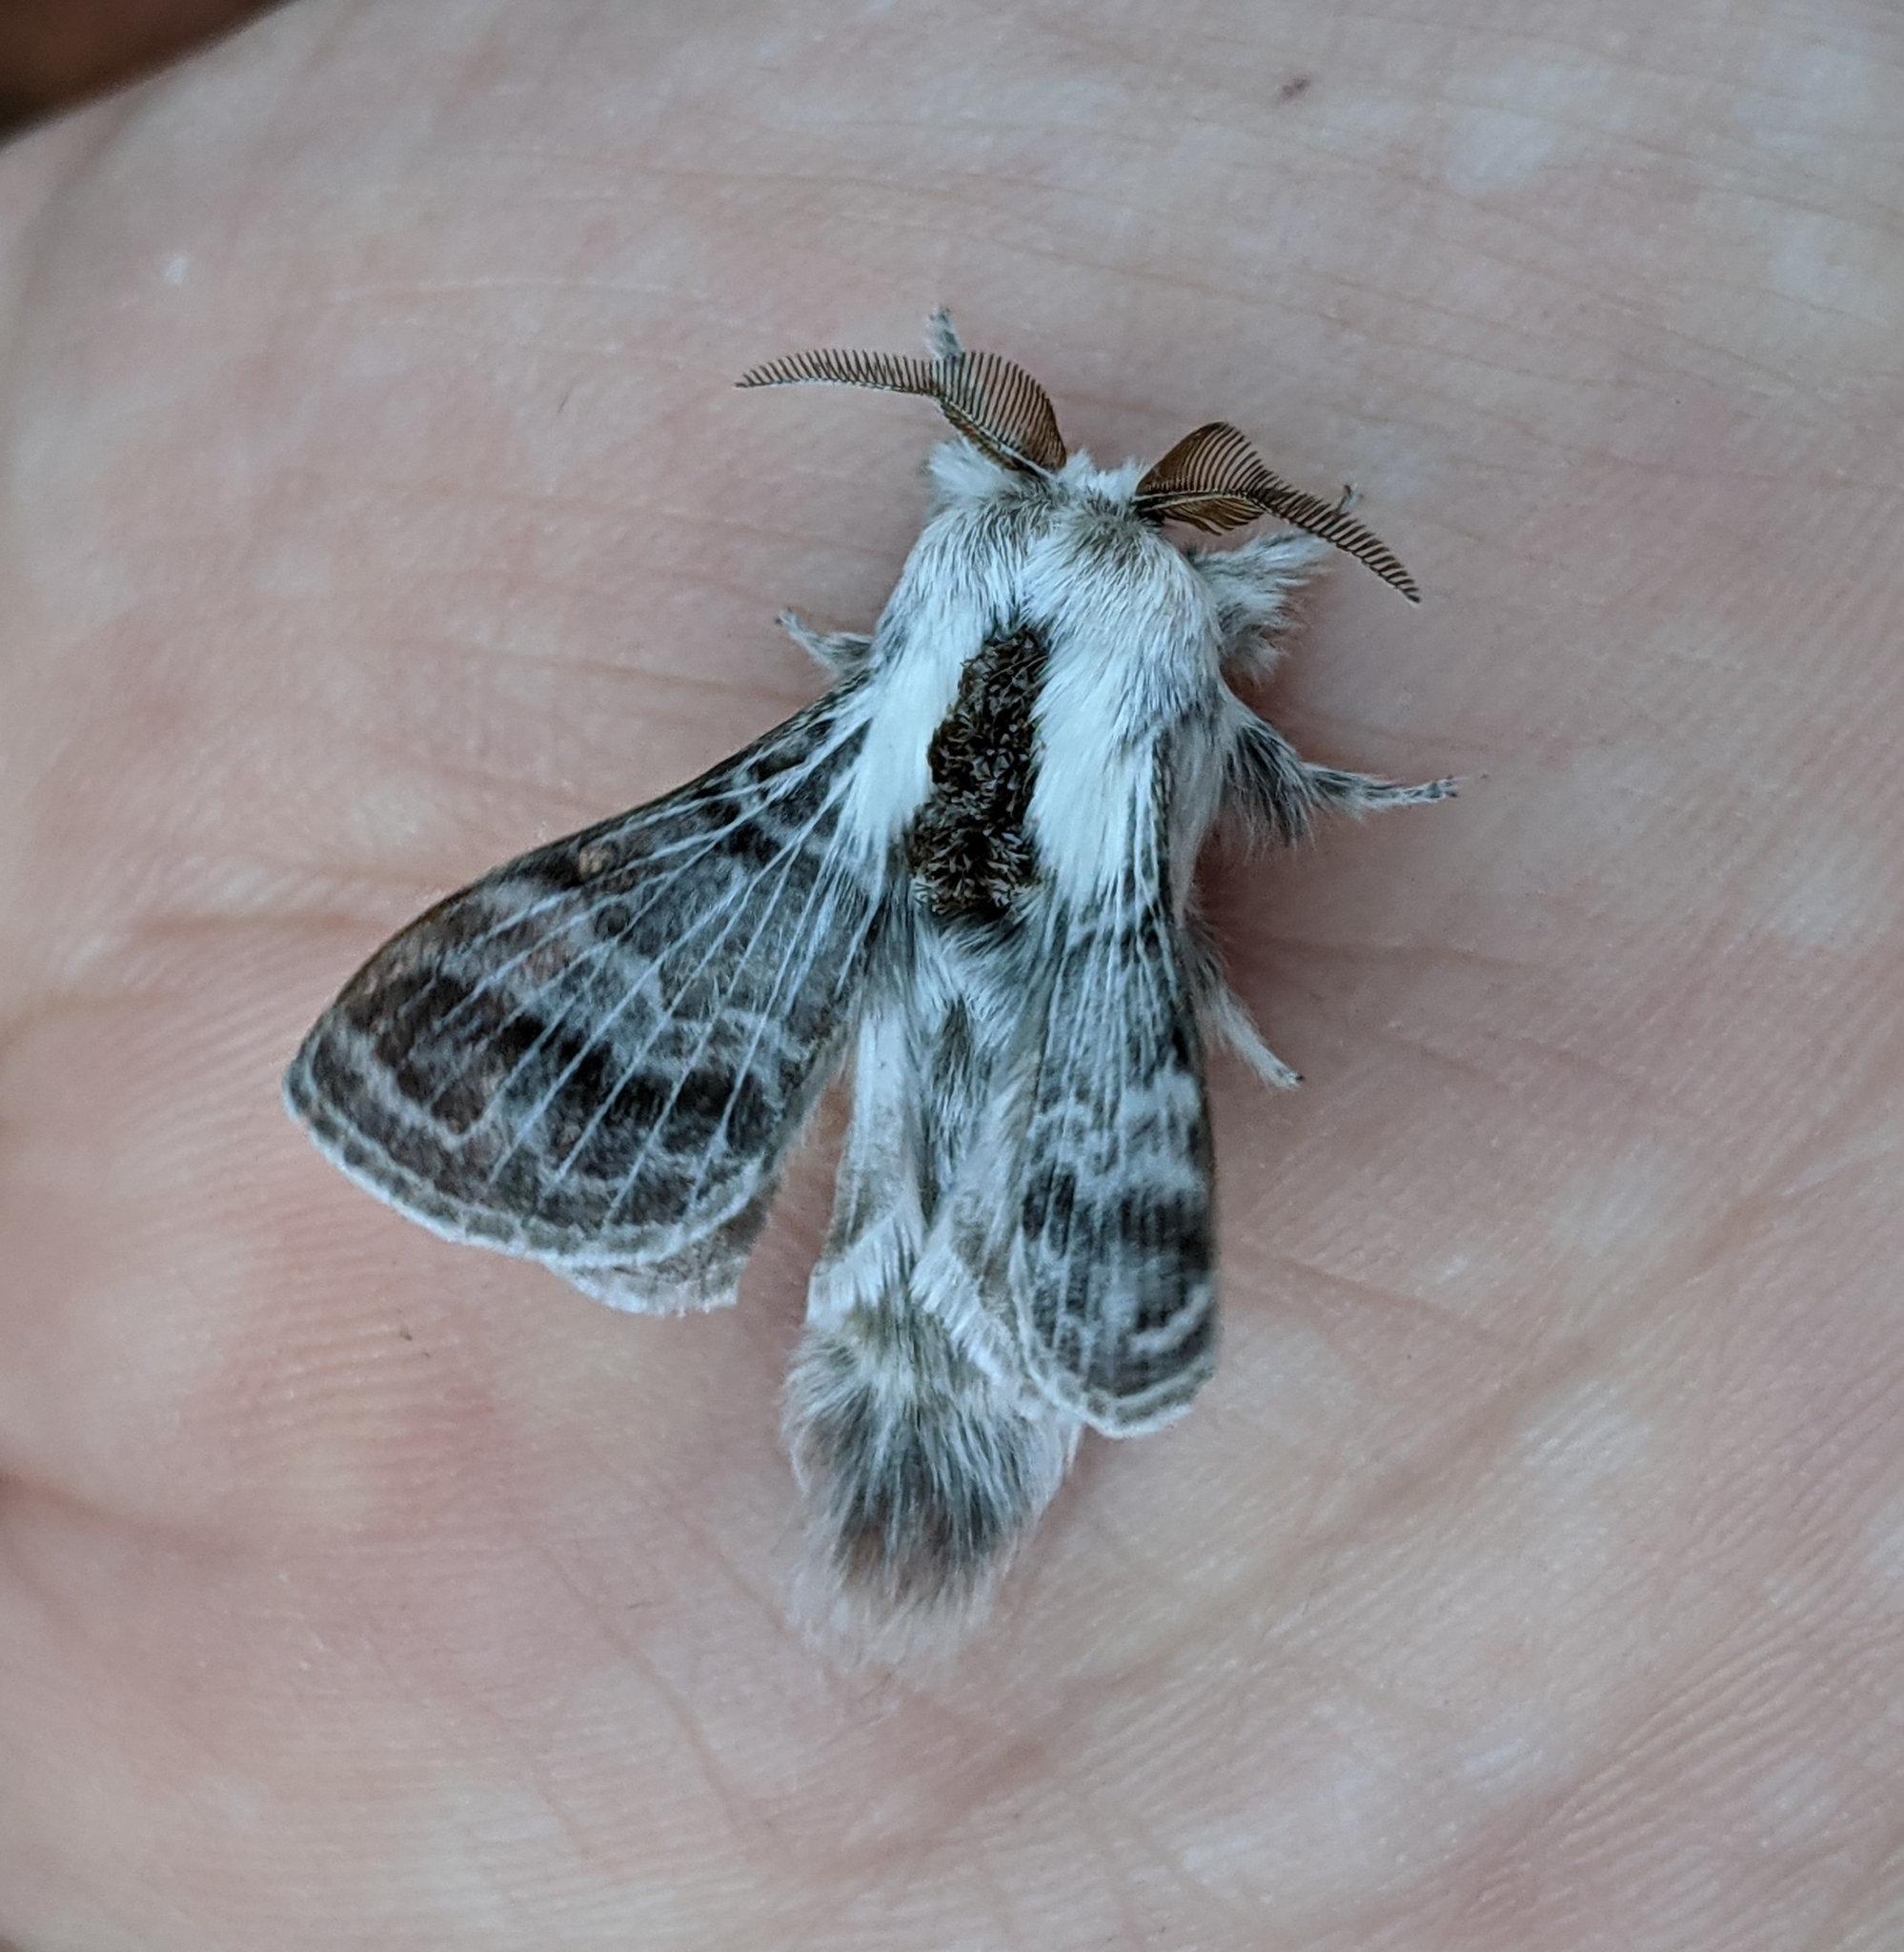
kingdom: Animalia
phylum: Arthropoda
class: Insecta
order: Lepidoptera
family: Lasiocampidae
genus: Tolype
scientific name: Tolype dayi
